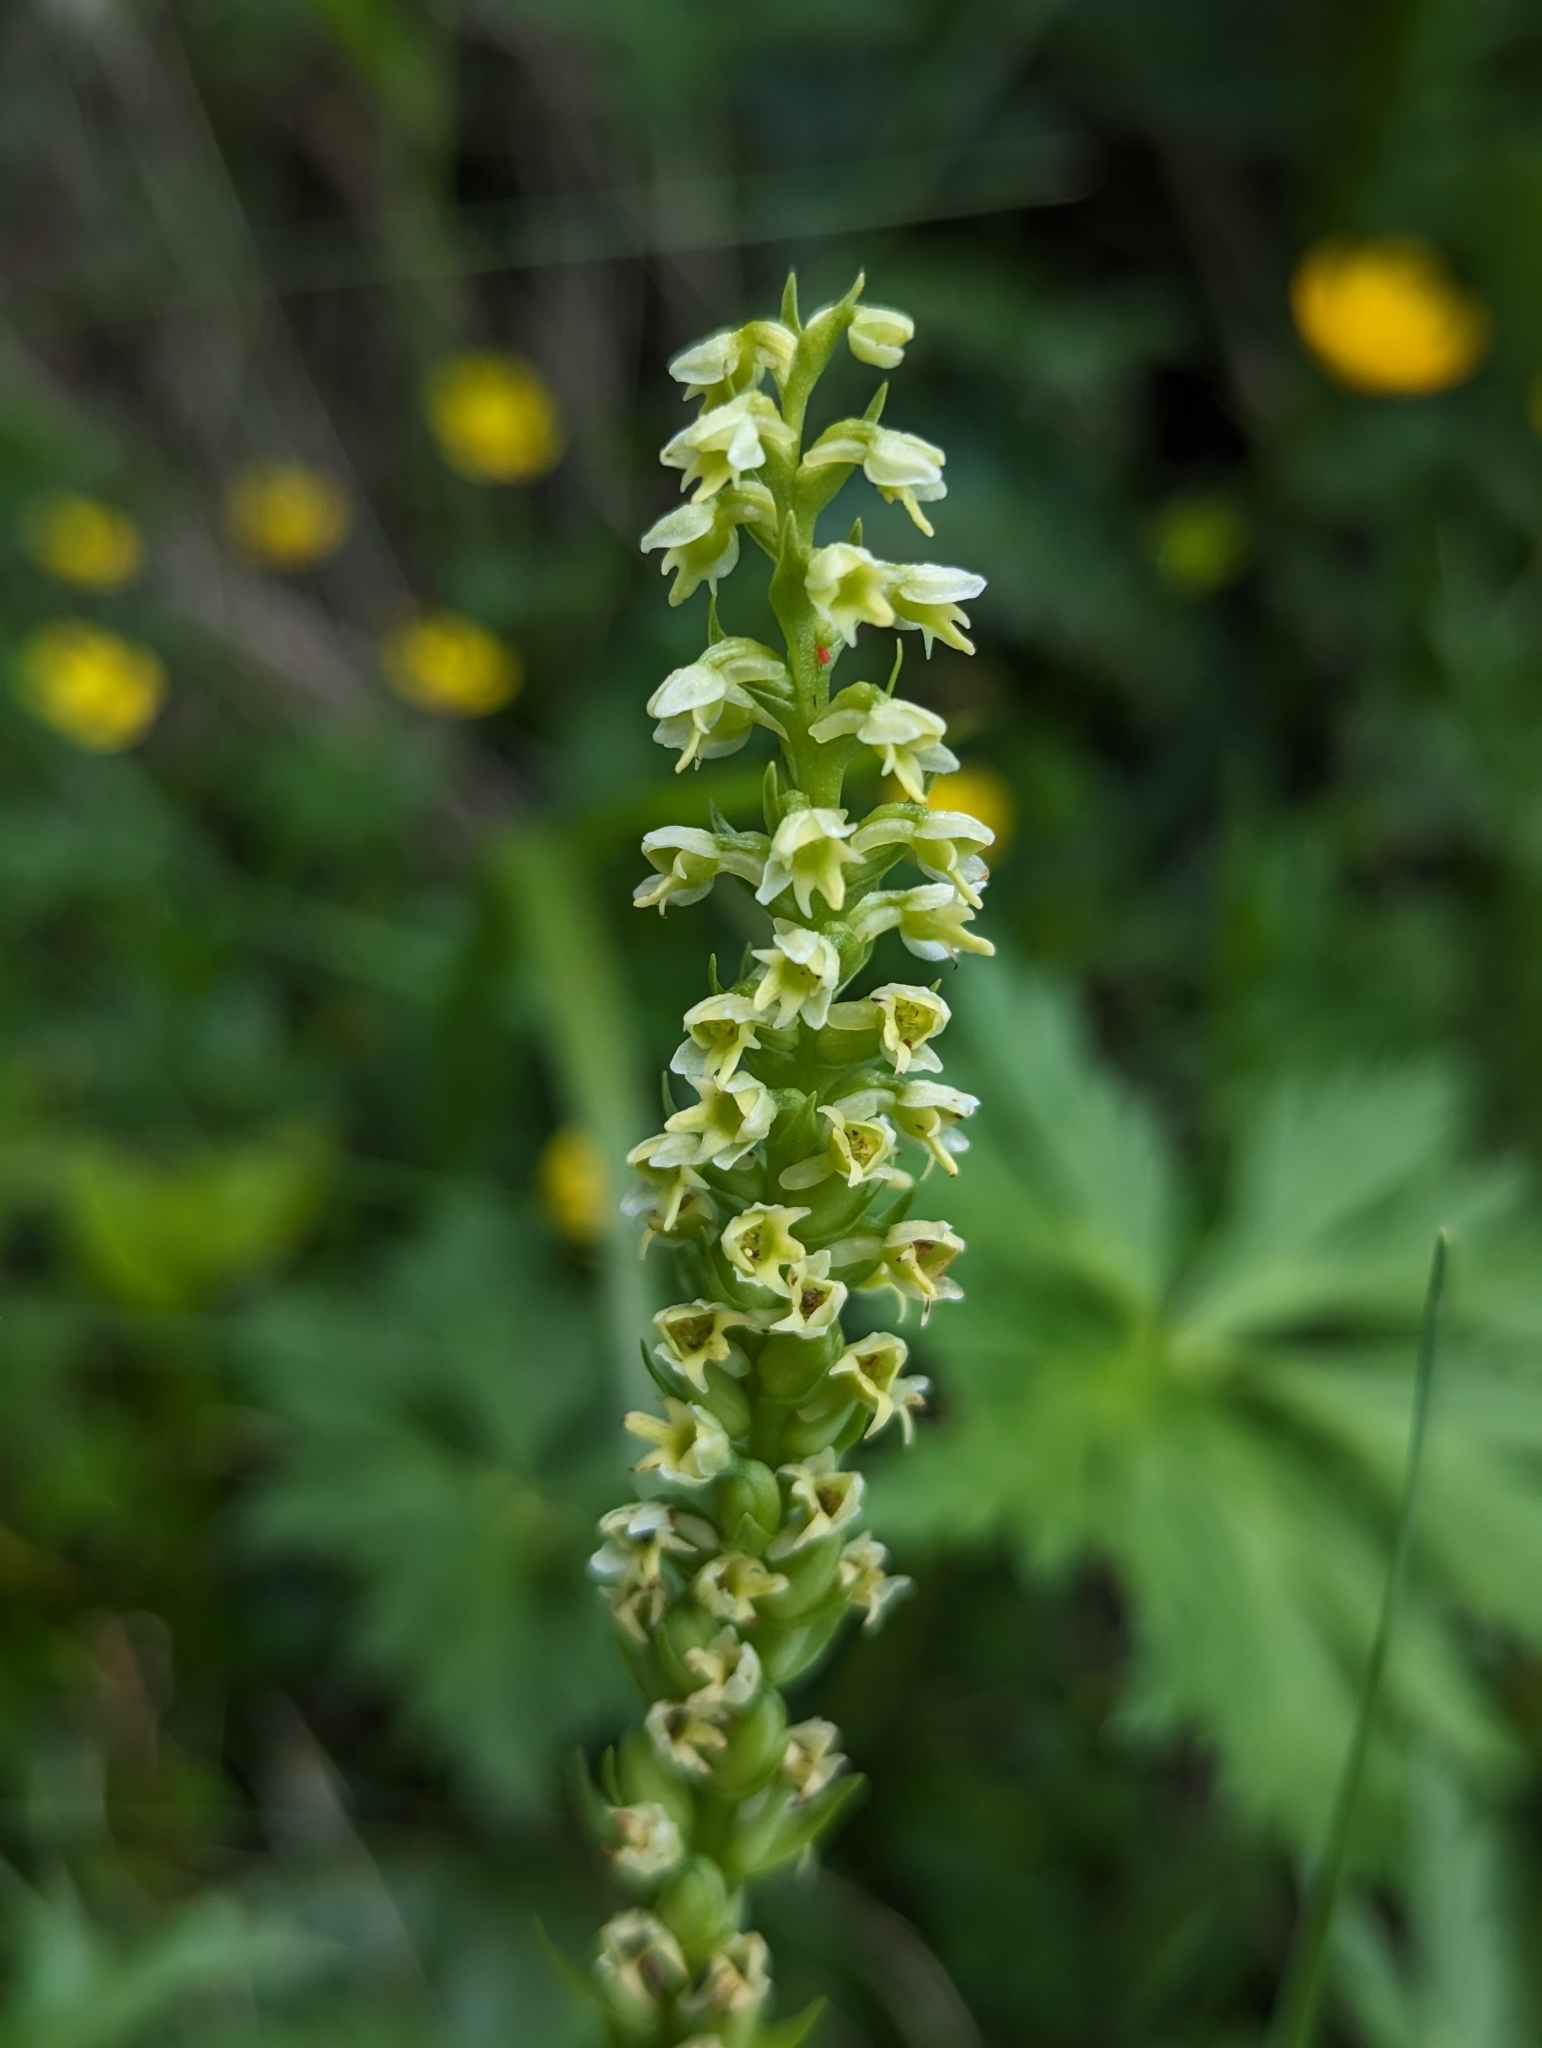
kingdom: Plantae
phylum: Tracheophyta
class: Liliopsida
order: Asparagales
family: Orchidaceae
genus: Pseudorchis
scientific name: Pseudorchis albida
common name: Small-white orchid
